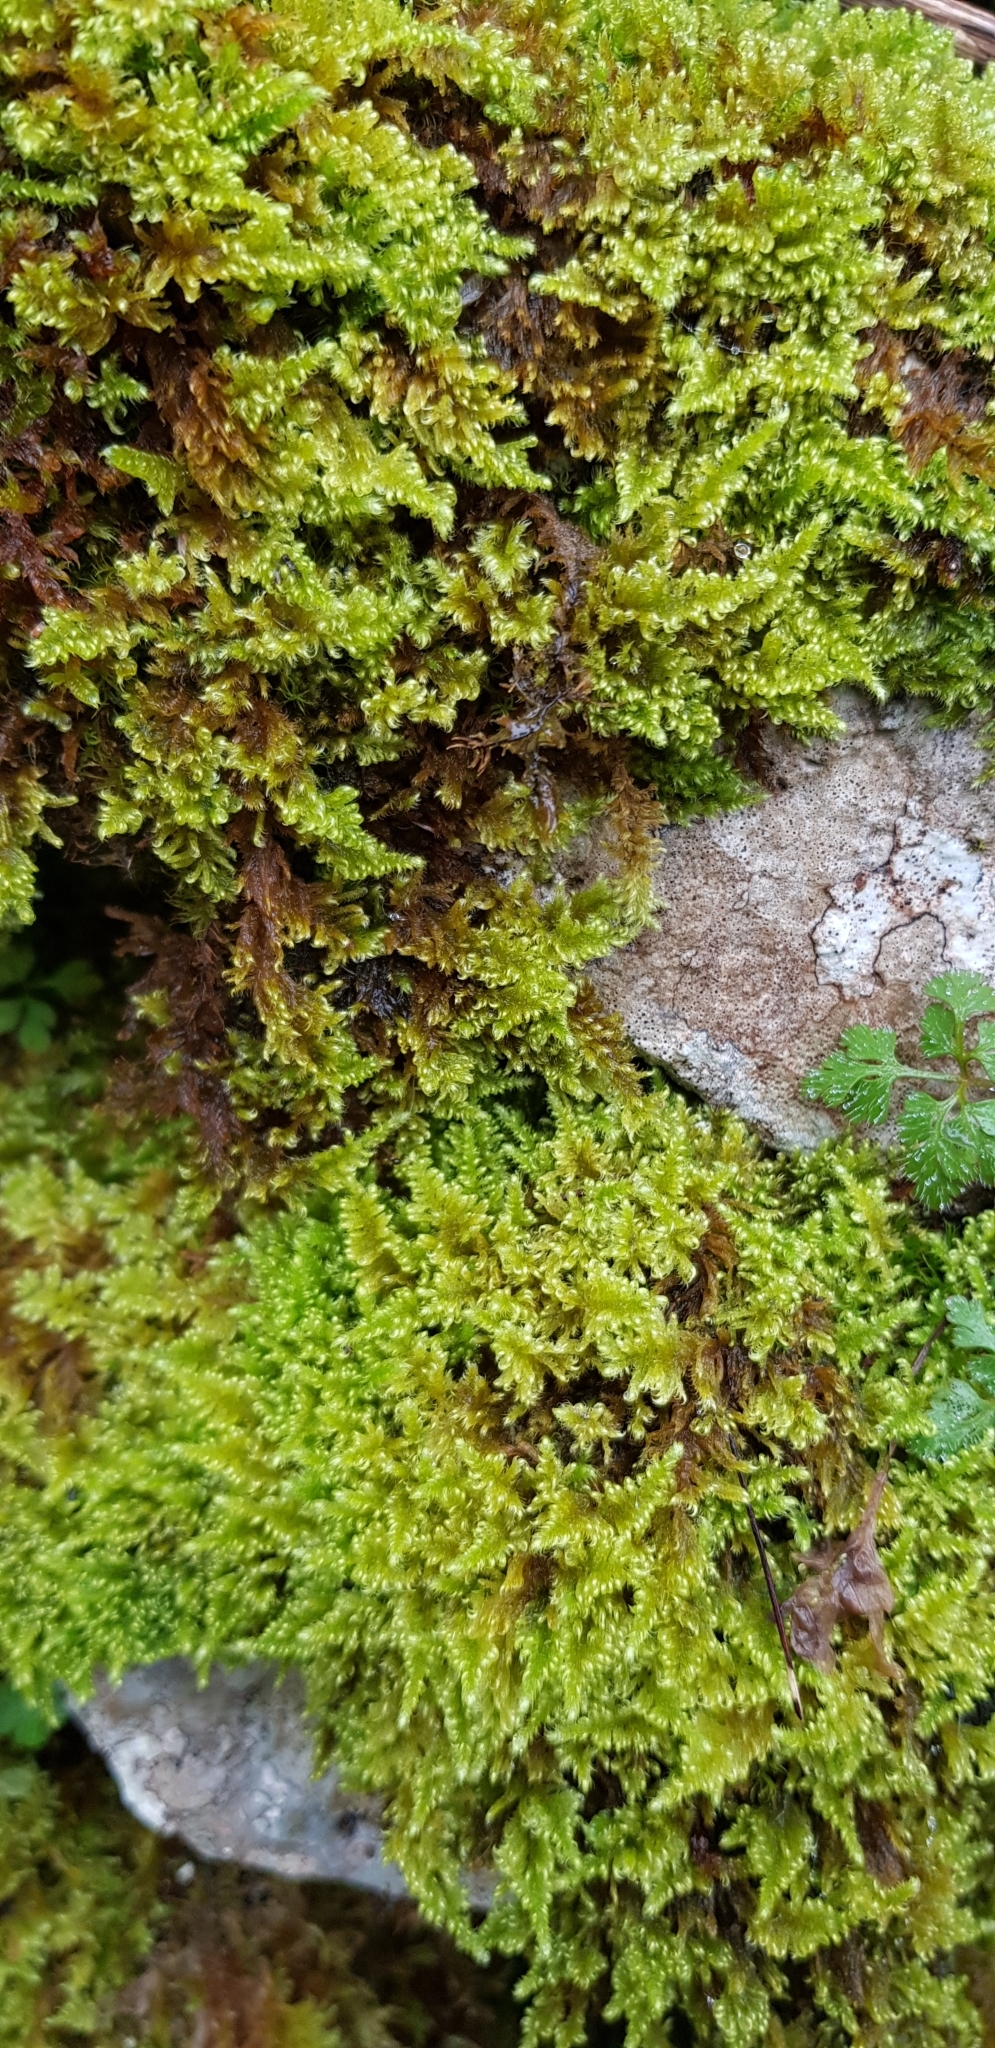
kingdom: Plantae
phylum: Bryophyta
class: Bryopsida
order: Hypnales
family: Myuriaceae
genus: Ctenidium
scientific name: Ctenidium molluscum
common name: Chalk comb-moss
